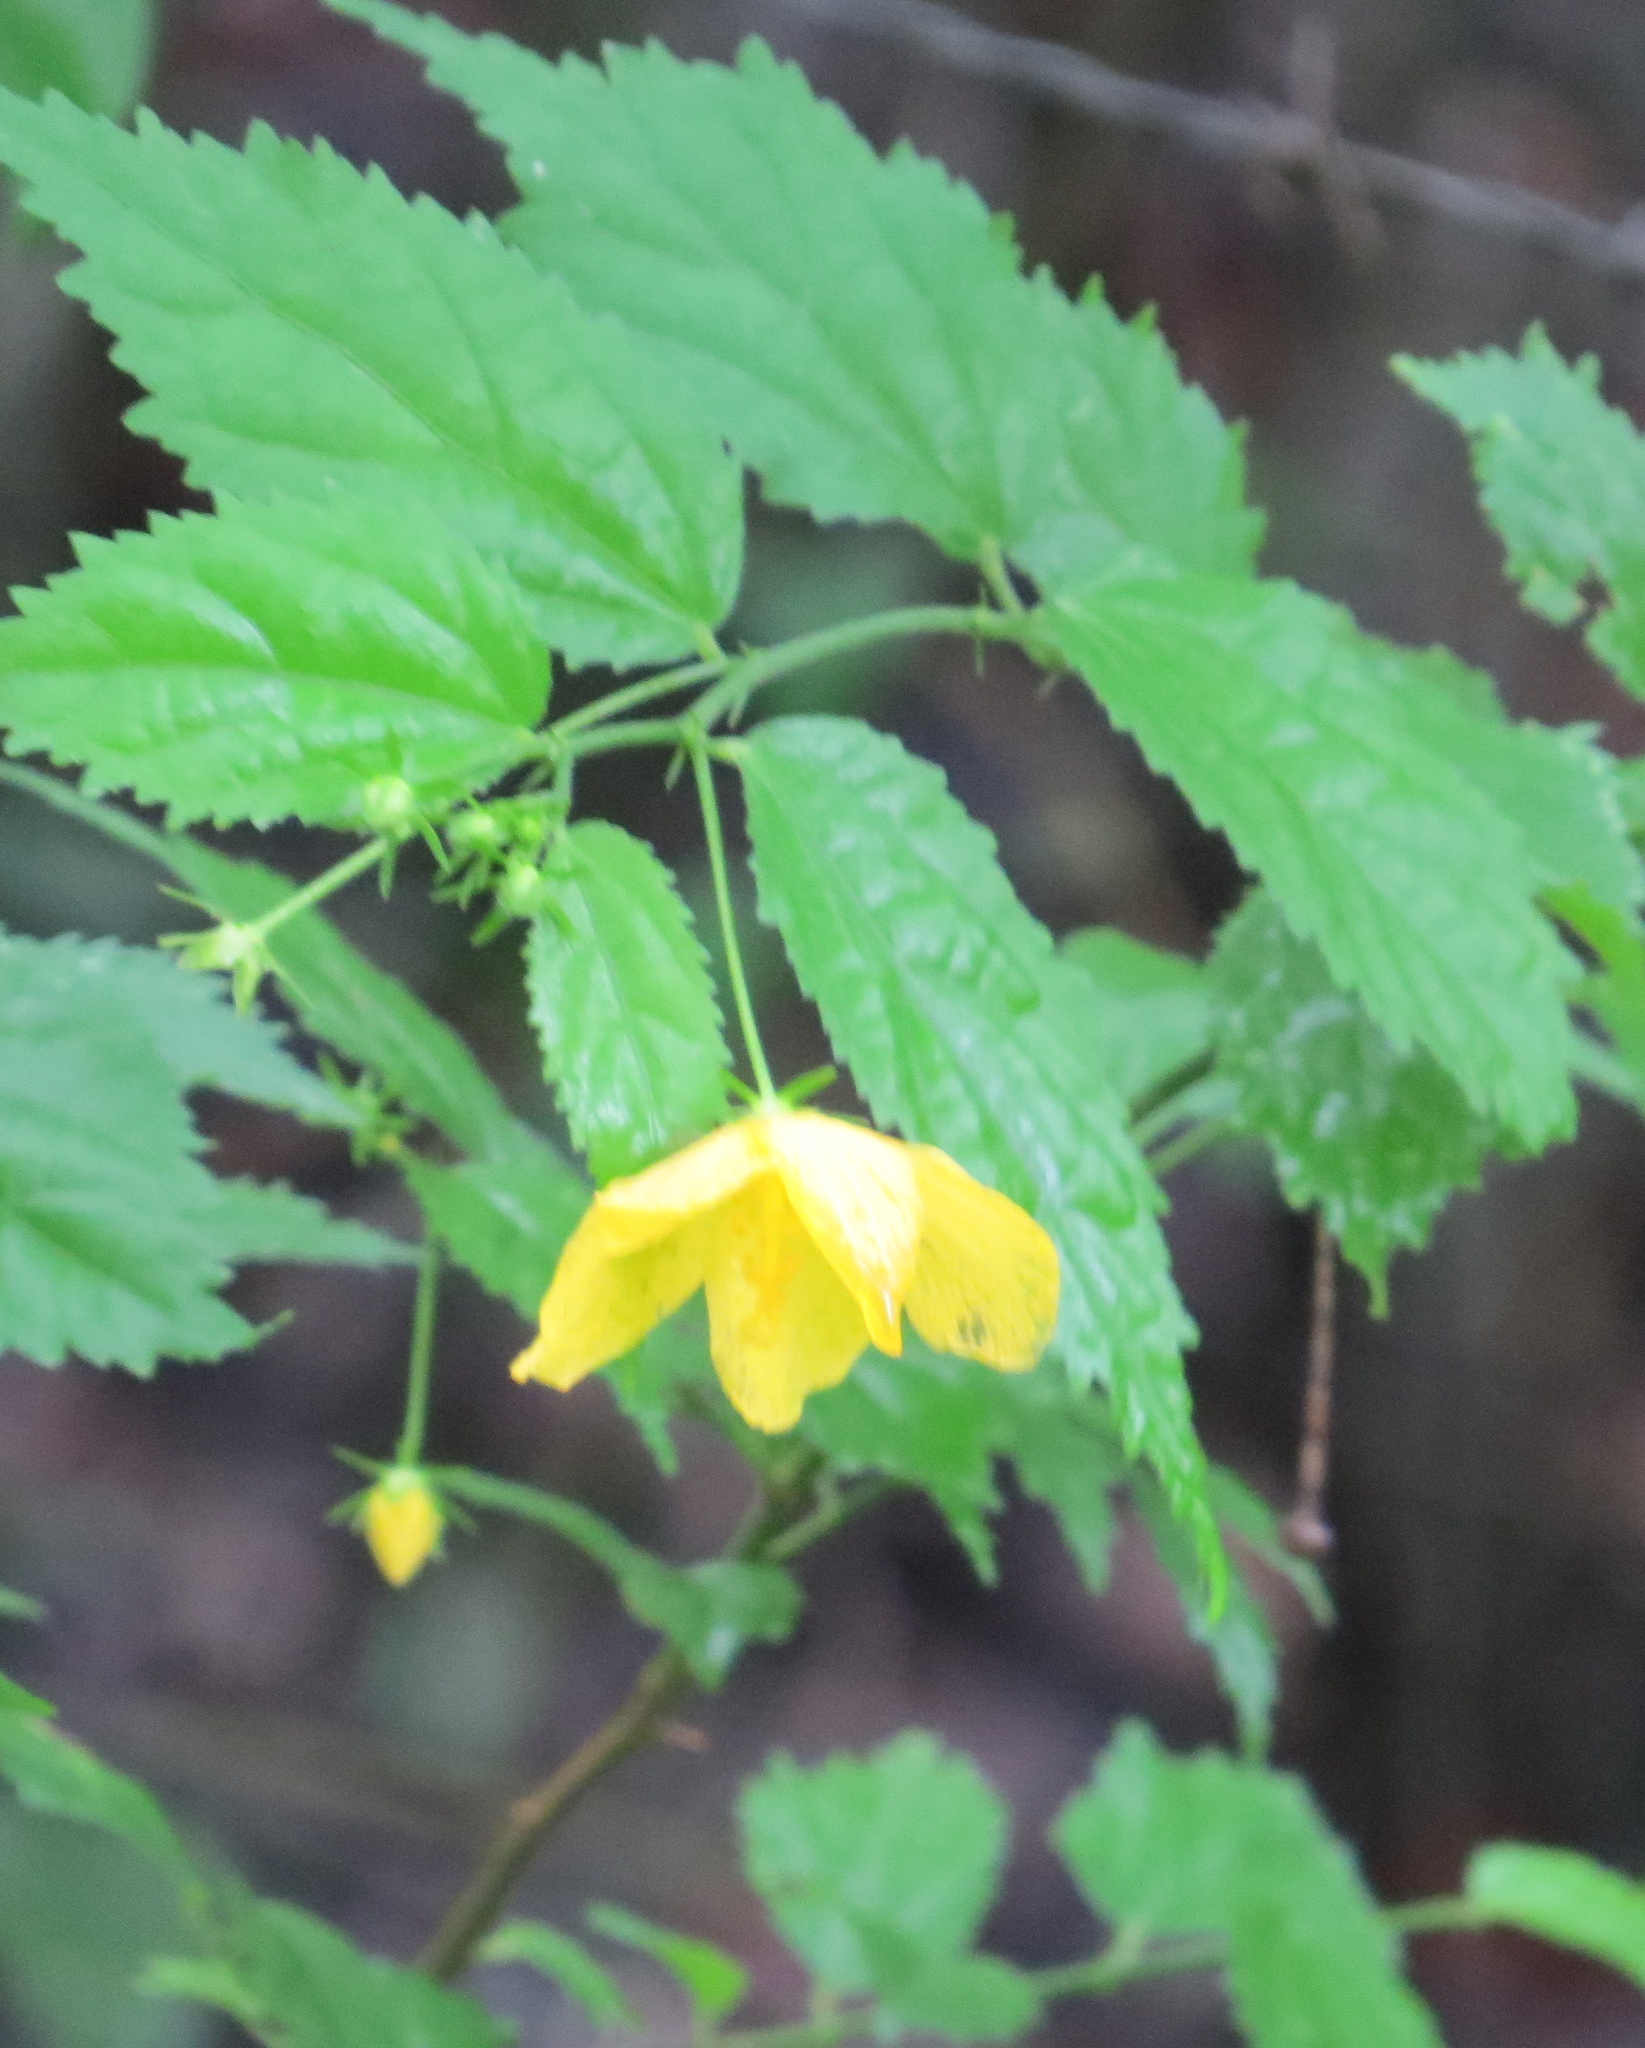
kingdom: Plantae
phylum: Tracheophyta
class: Magnoliopsida
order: Malvales
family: Malvaceae
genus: Pavonia
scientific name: Pavonia sepium
